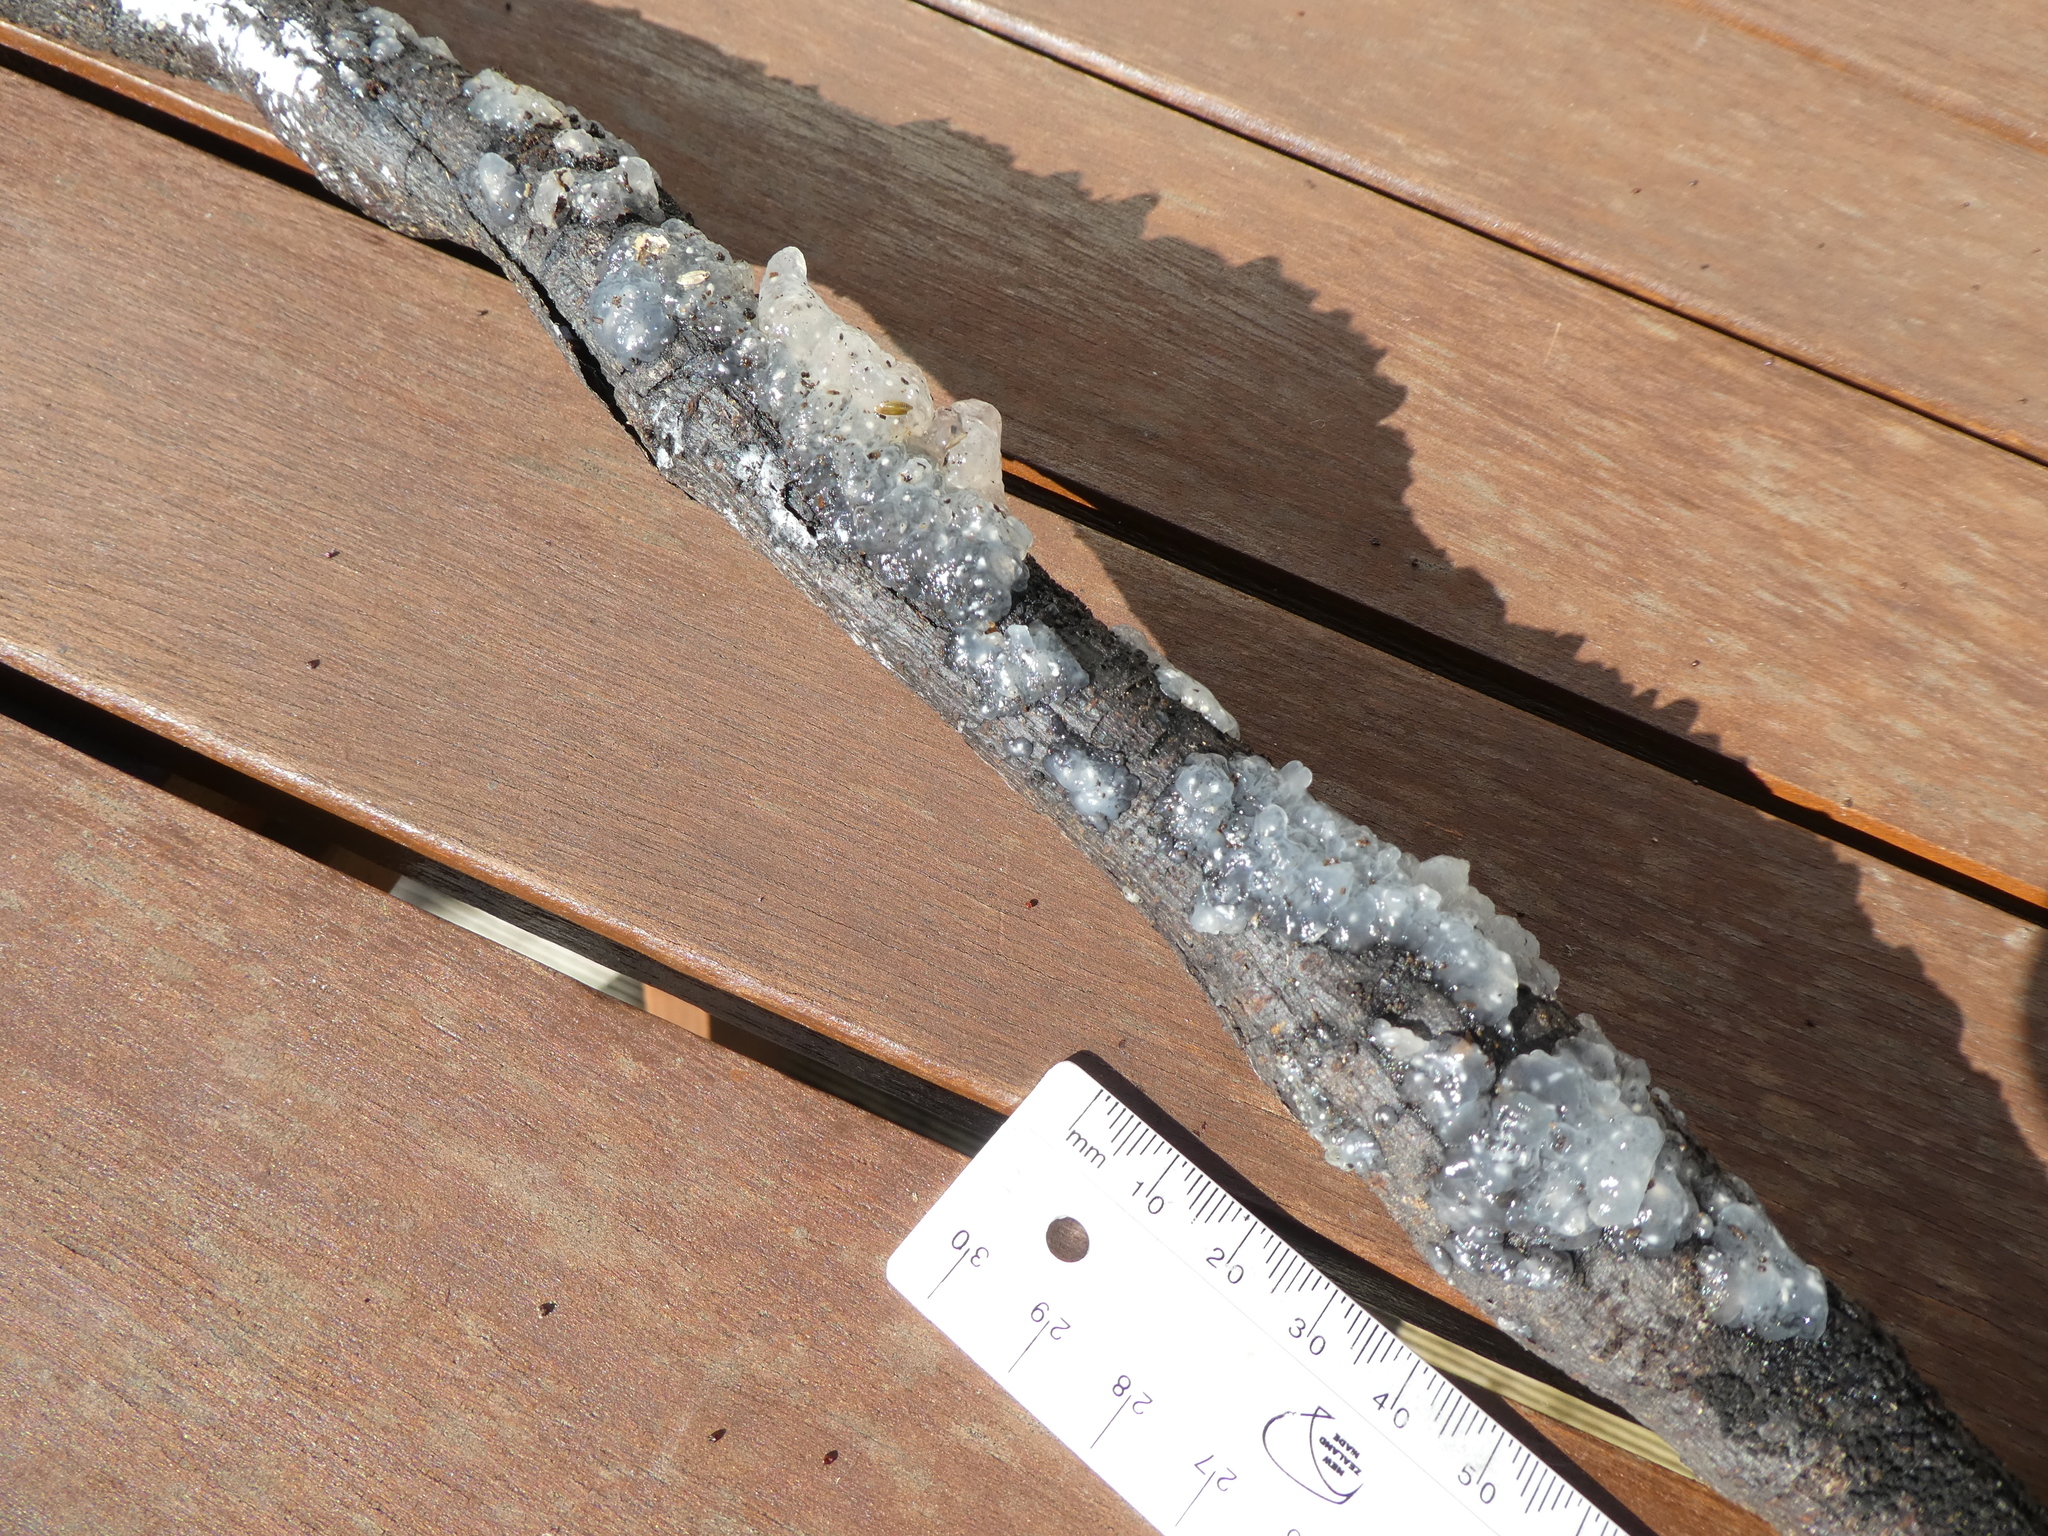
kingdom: Fungi
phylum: Basidiomycota
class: Agaricomycetes
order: Auriculariales
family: Hyaloriaceae
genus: Myxarium
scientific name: Myxarium nucleatum
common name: Crystal brain fungus
